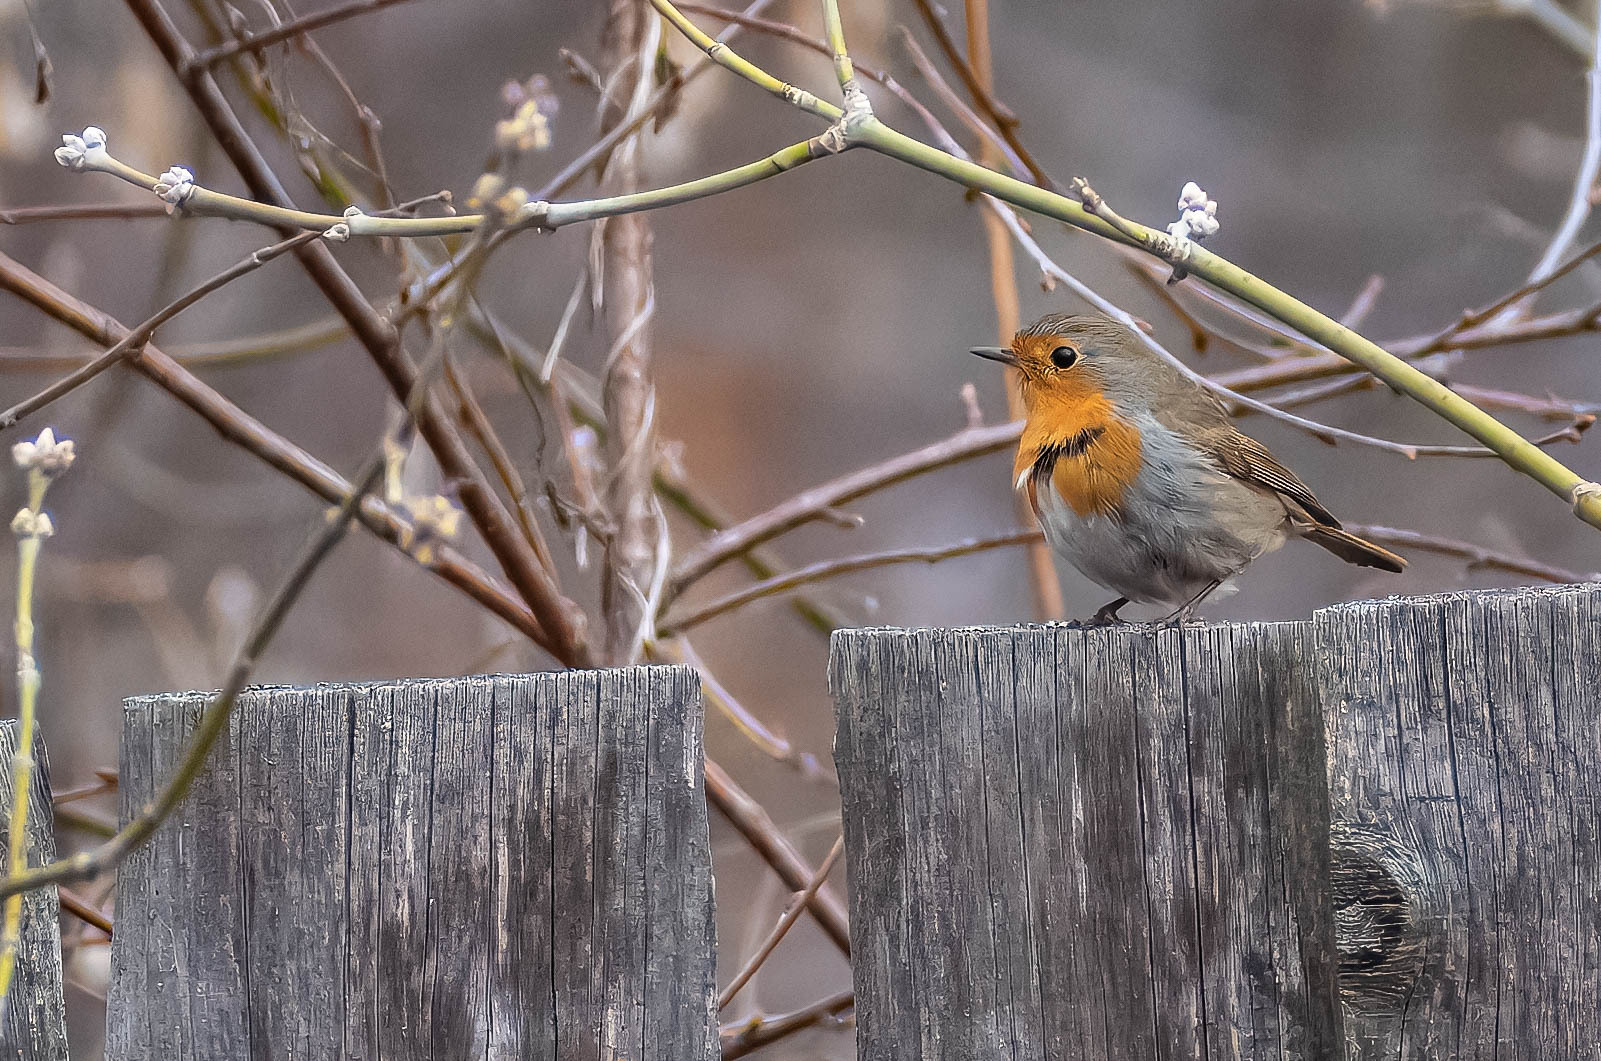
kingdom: Animalia
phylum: Chordata
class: Aves
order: Passeriformes
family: Muscicapidae
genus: Erithacus
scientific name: Erithacus rubecula
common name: European robin
